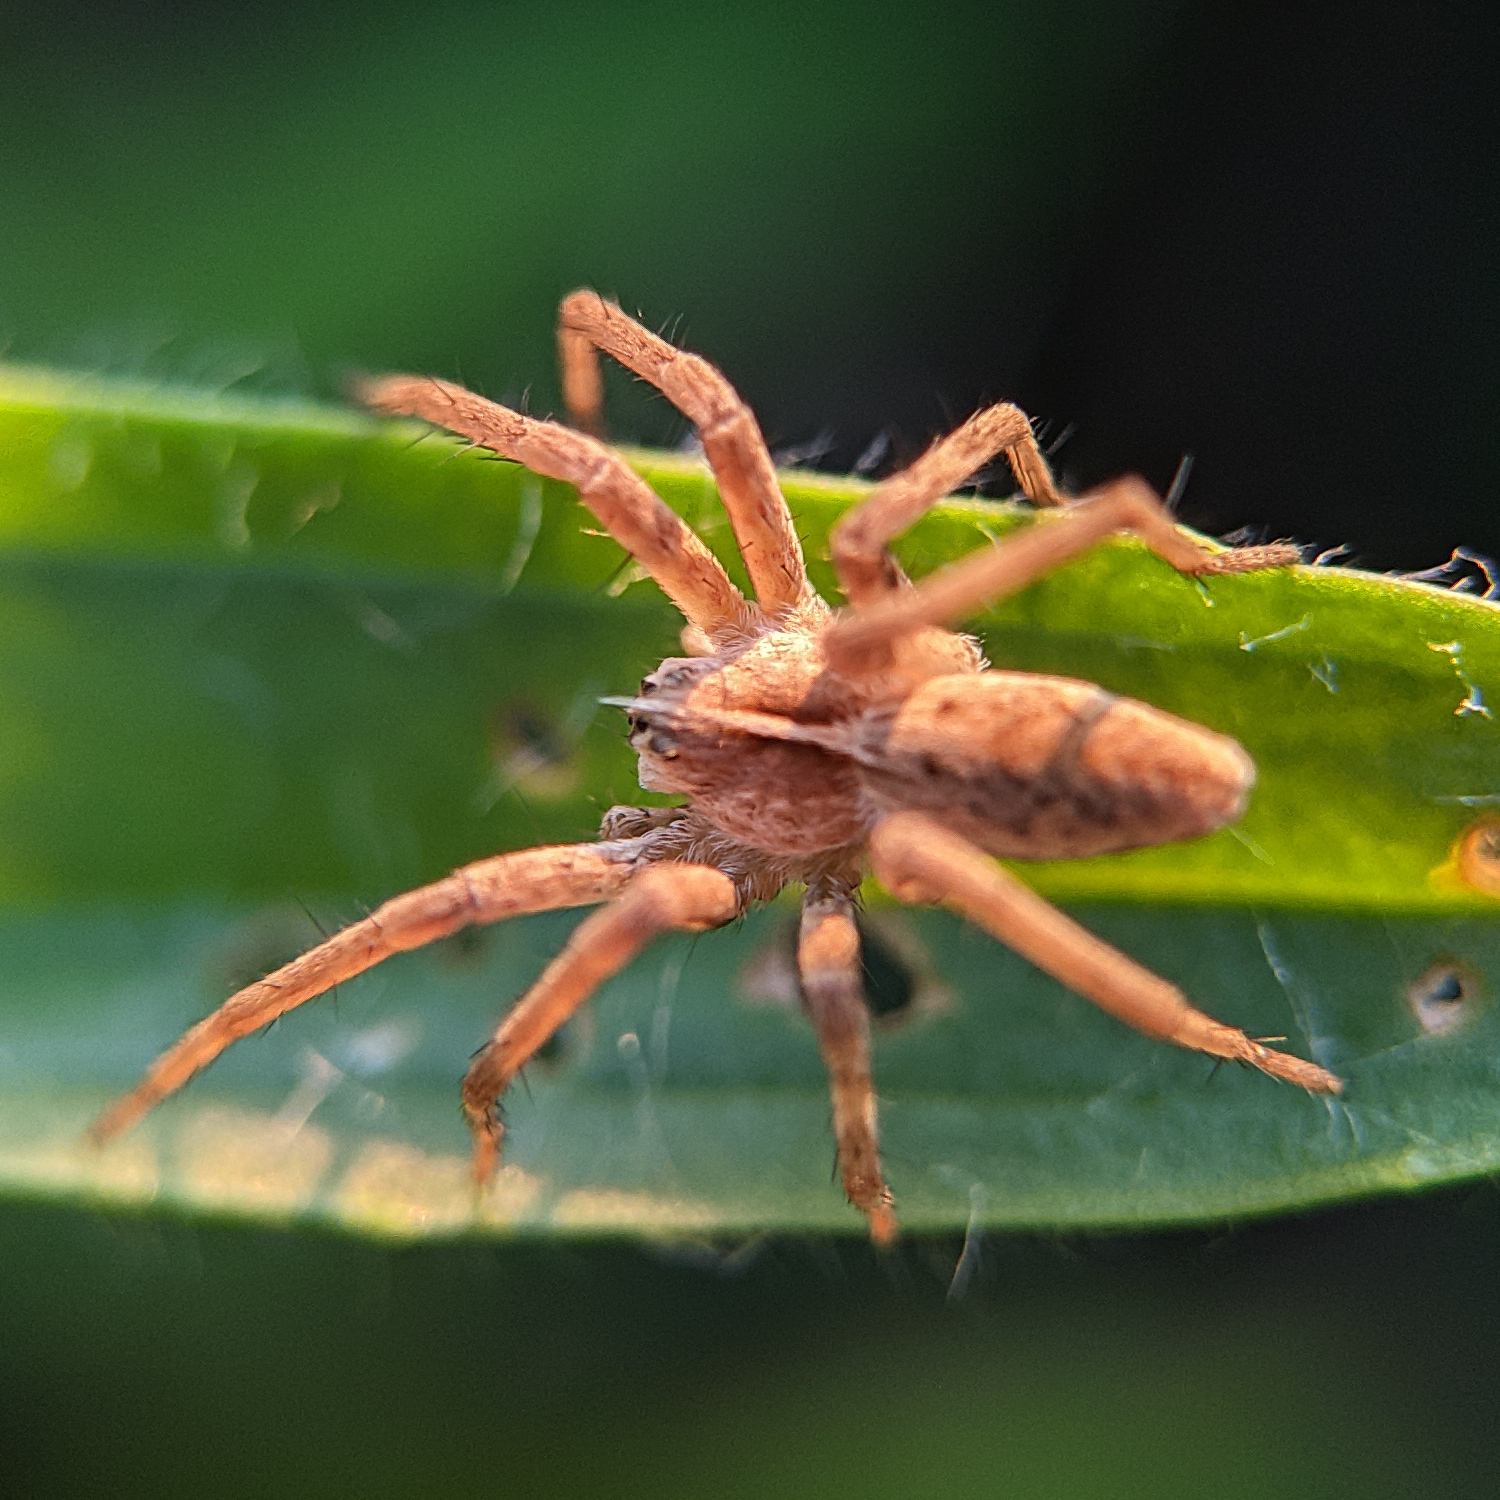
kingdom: Animalia
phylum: Arthropoda
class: Arachnida
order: Araneae
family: Pisauridae
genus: Pisaura
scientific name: Pisaura mirabilis
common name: Tent spider
